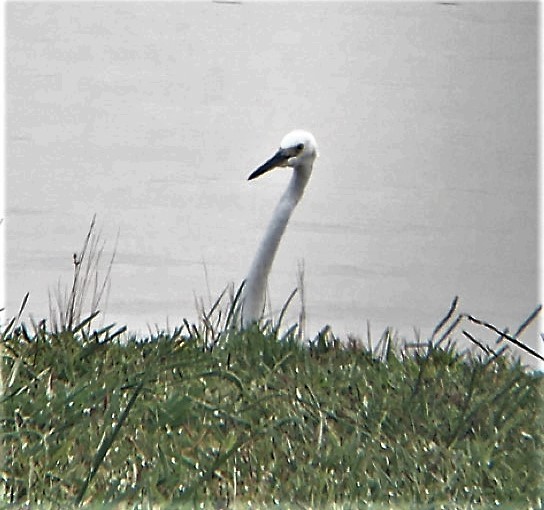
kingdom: Animalia
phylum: Chordata
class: Aves
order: Pelecaniformes
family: Ardeidae
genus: Ardea
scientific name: Ardea alba
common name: Great egret
